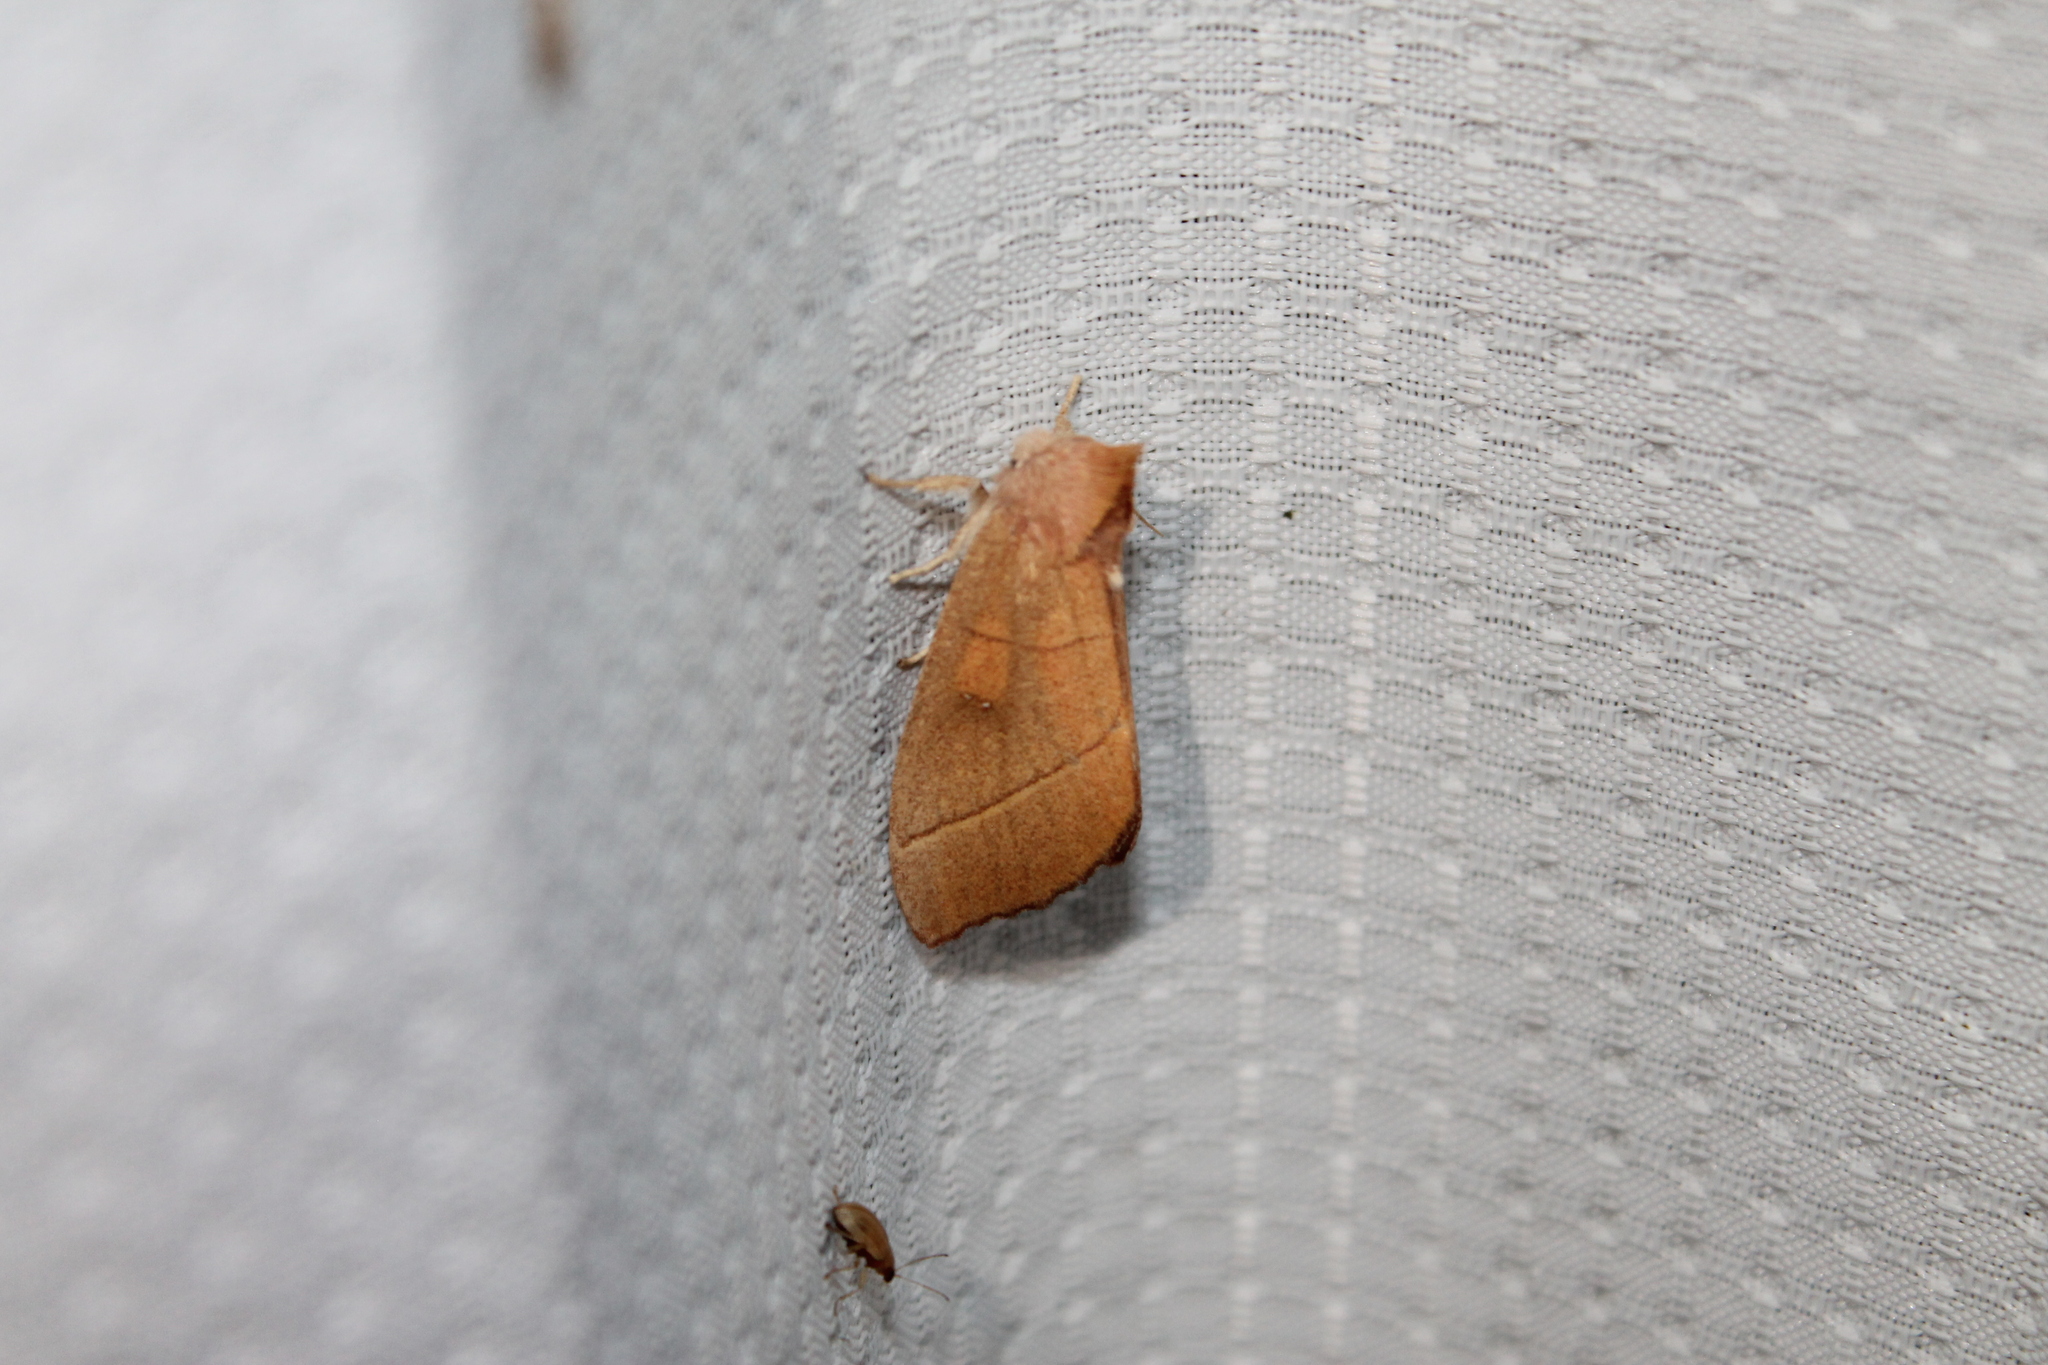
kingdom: Animalia
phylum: Arthropoda
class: Insecta
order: Lepidoptera
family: Notodontidae
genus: Nadata
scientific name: Nadata gibbosa
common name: White-dotted prominent
